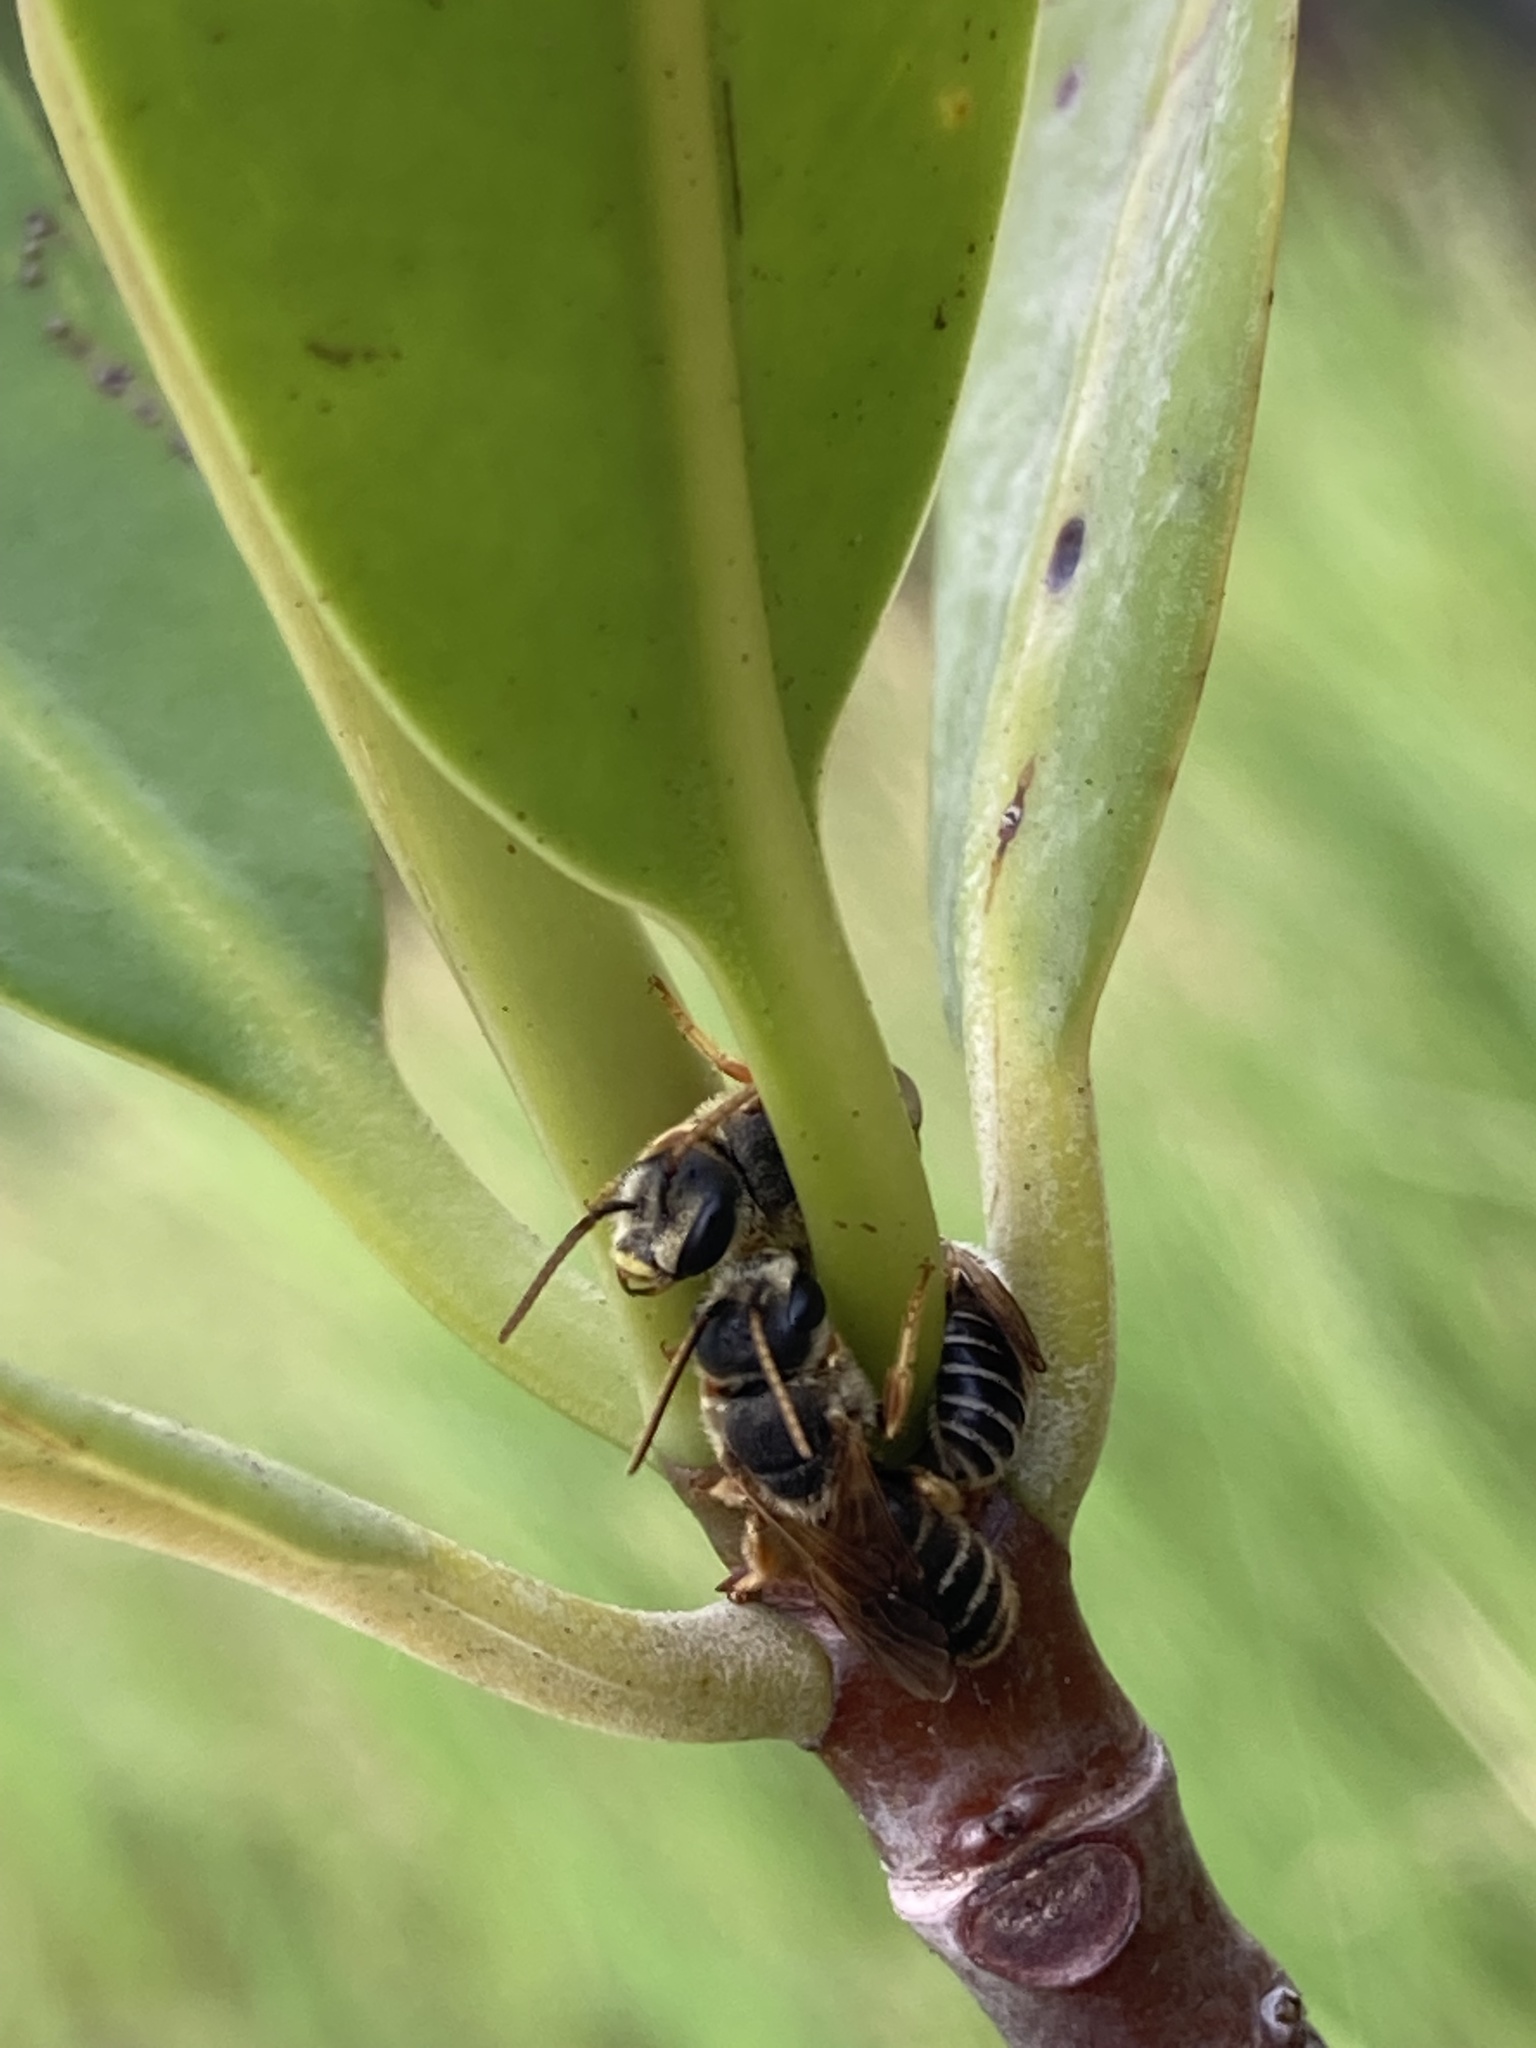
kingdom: Animalia
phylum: Arthropoda
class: Insecta
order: Hymenoptera
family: Halictidae
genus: Halictus
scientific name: Halictus poeyi
